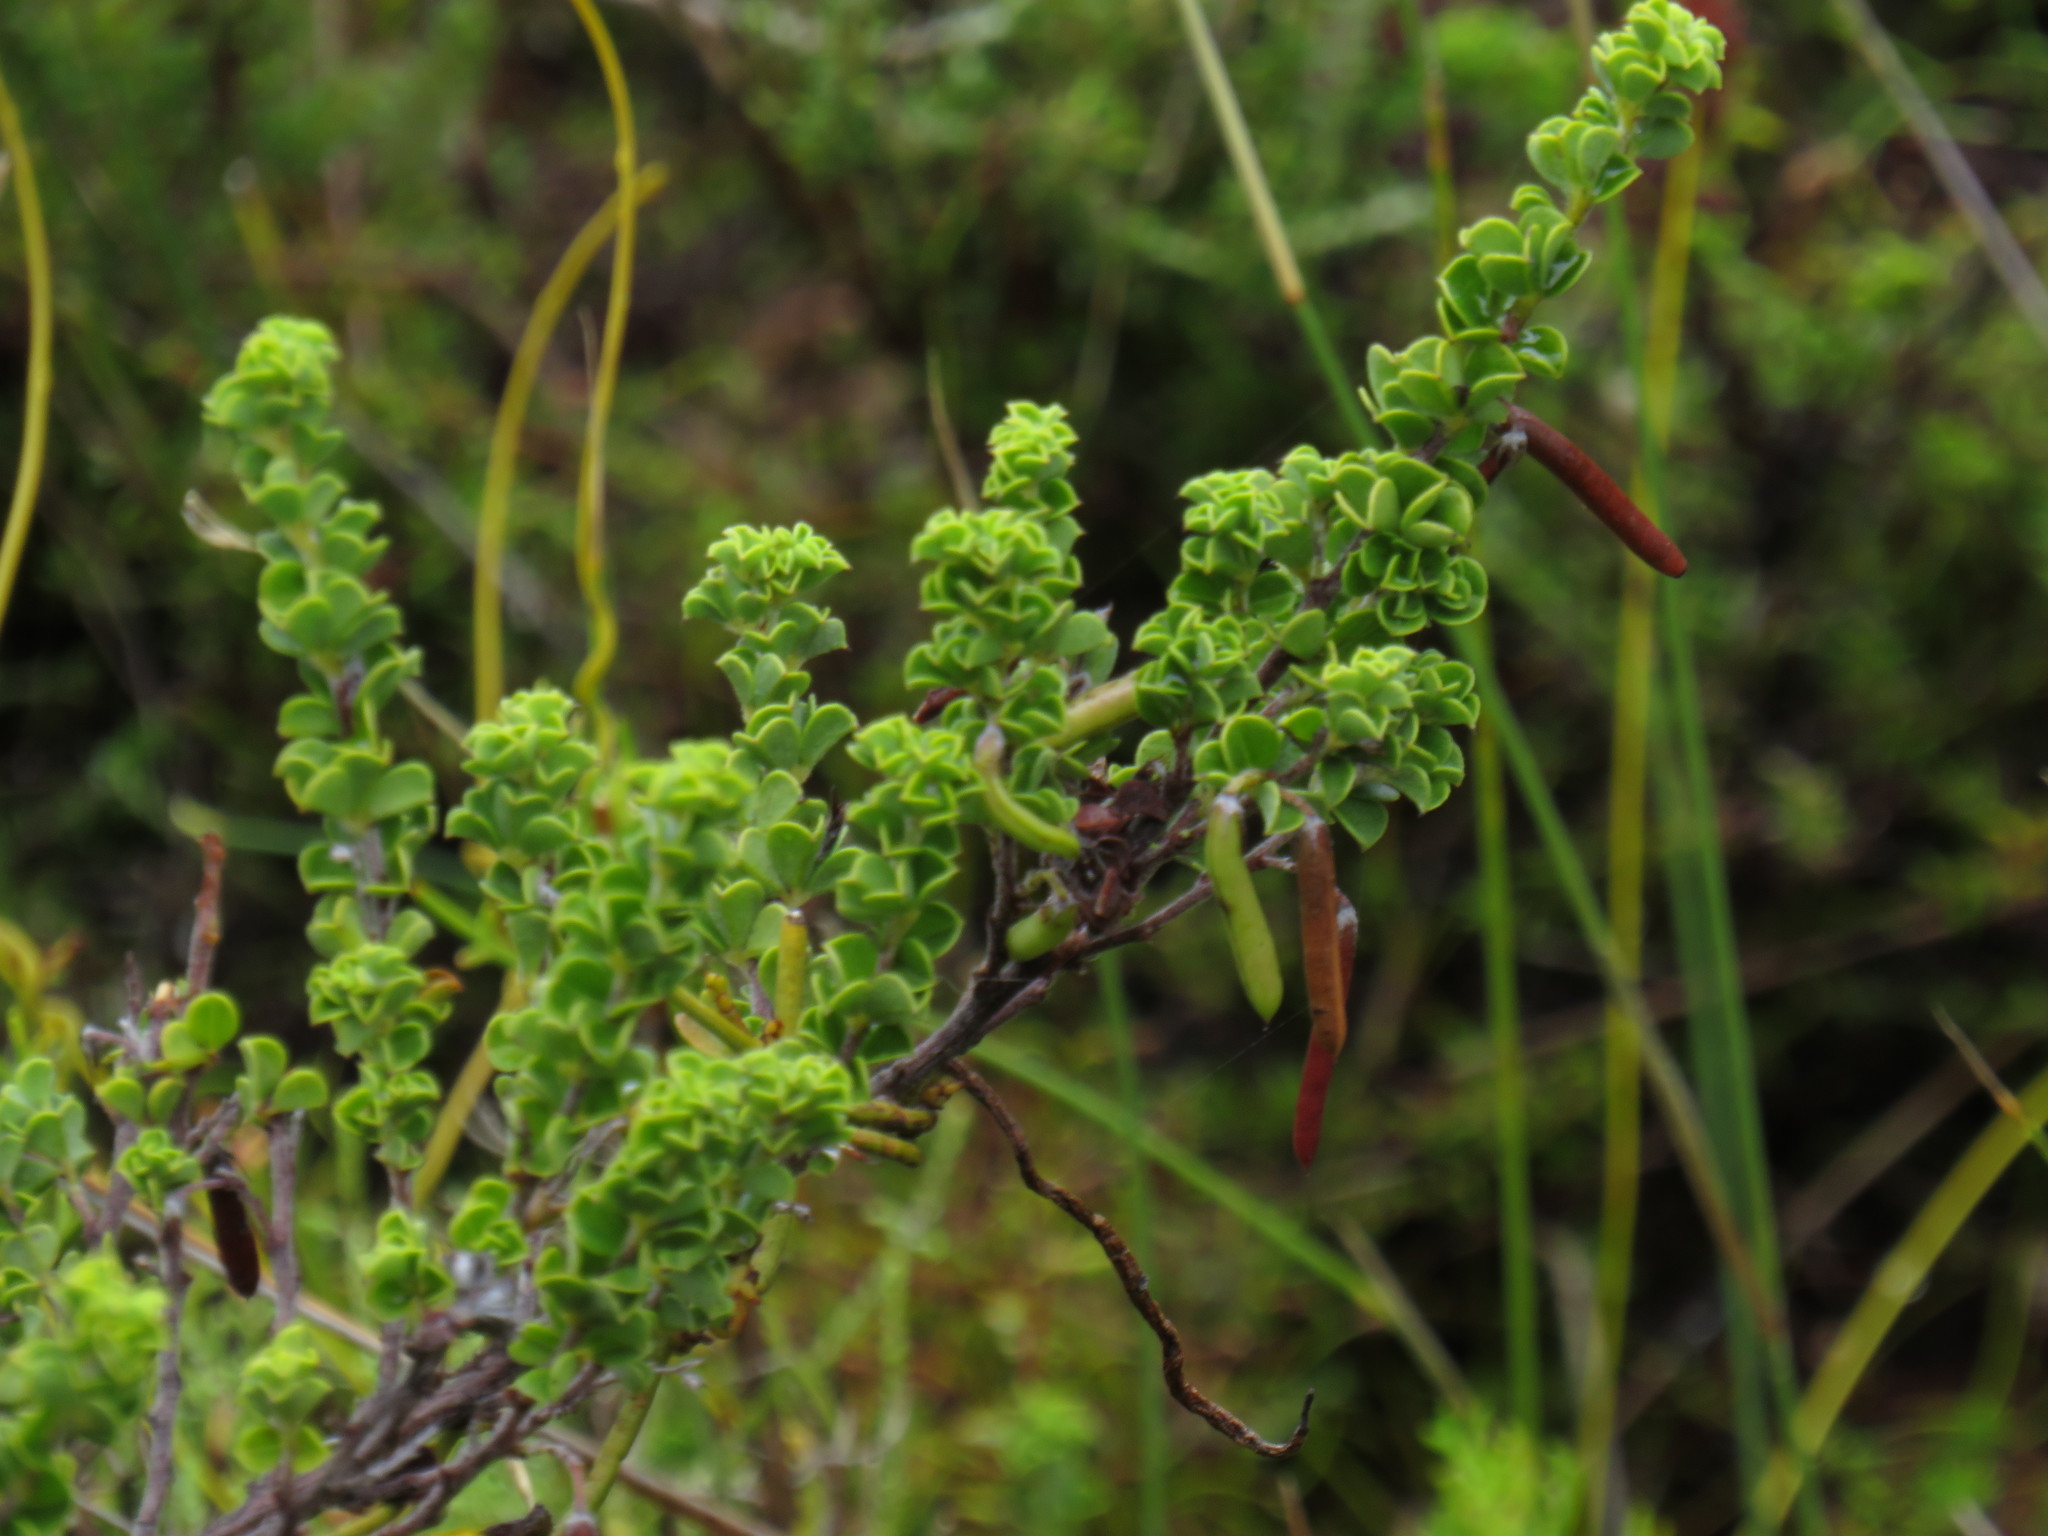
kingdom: Plantae
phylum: Tracheophyta
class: Magnoliopsida
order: Fabales
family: Fabaceae
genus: Indigofera
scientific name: Indigofera candolleana
